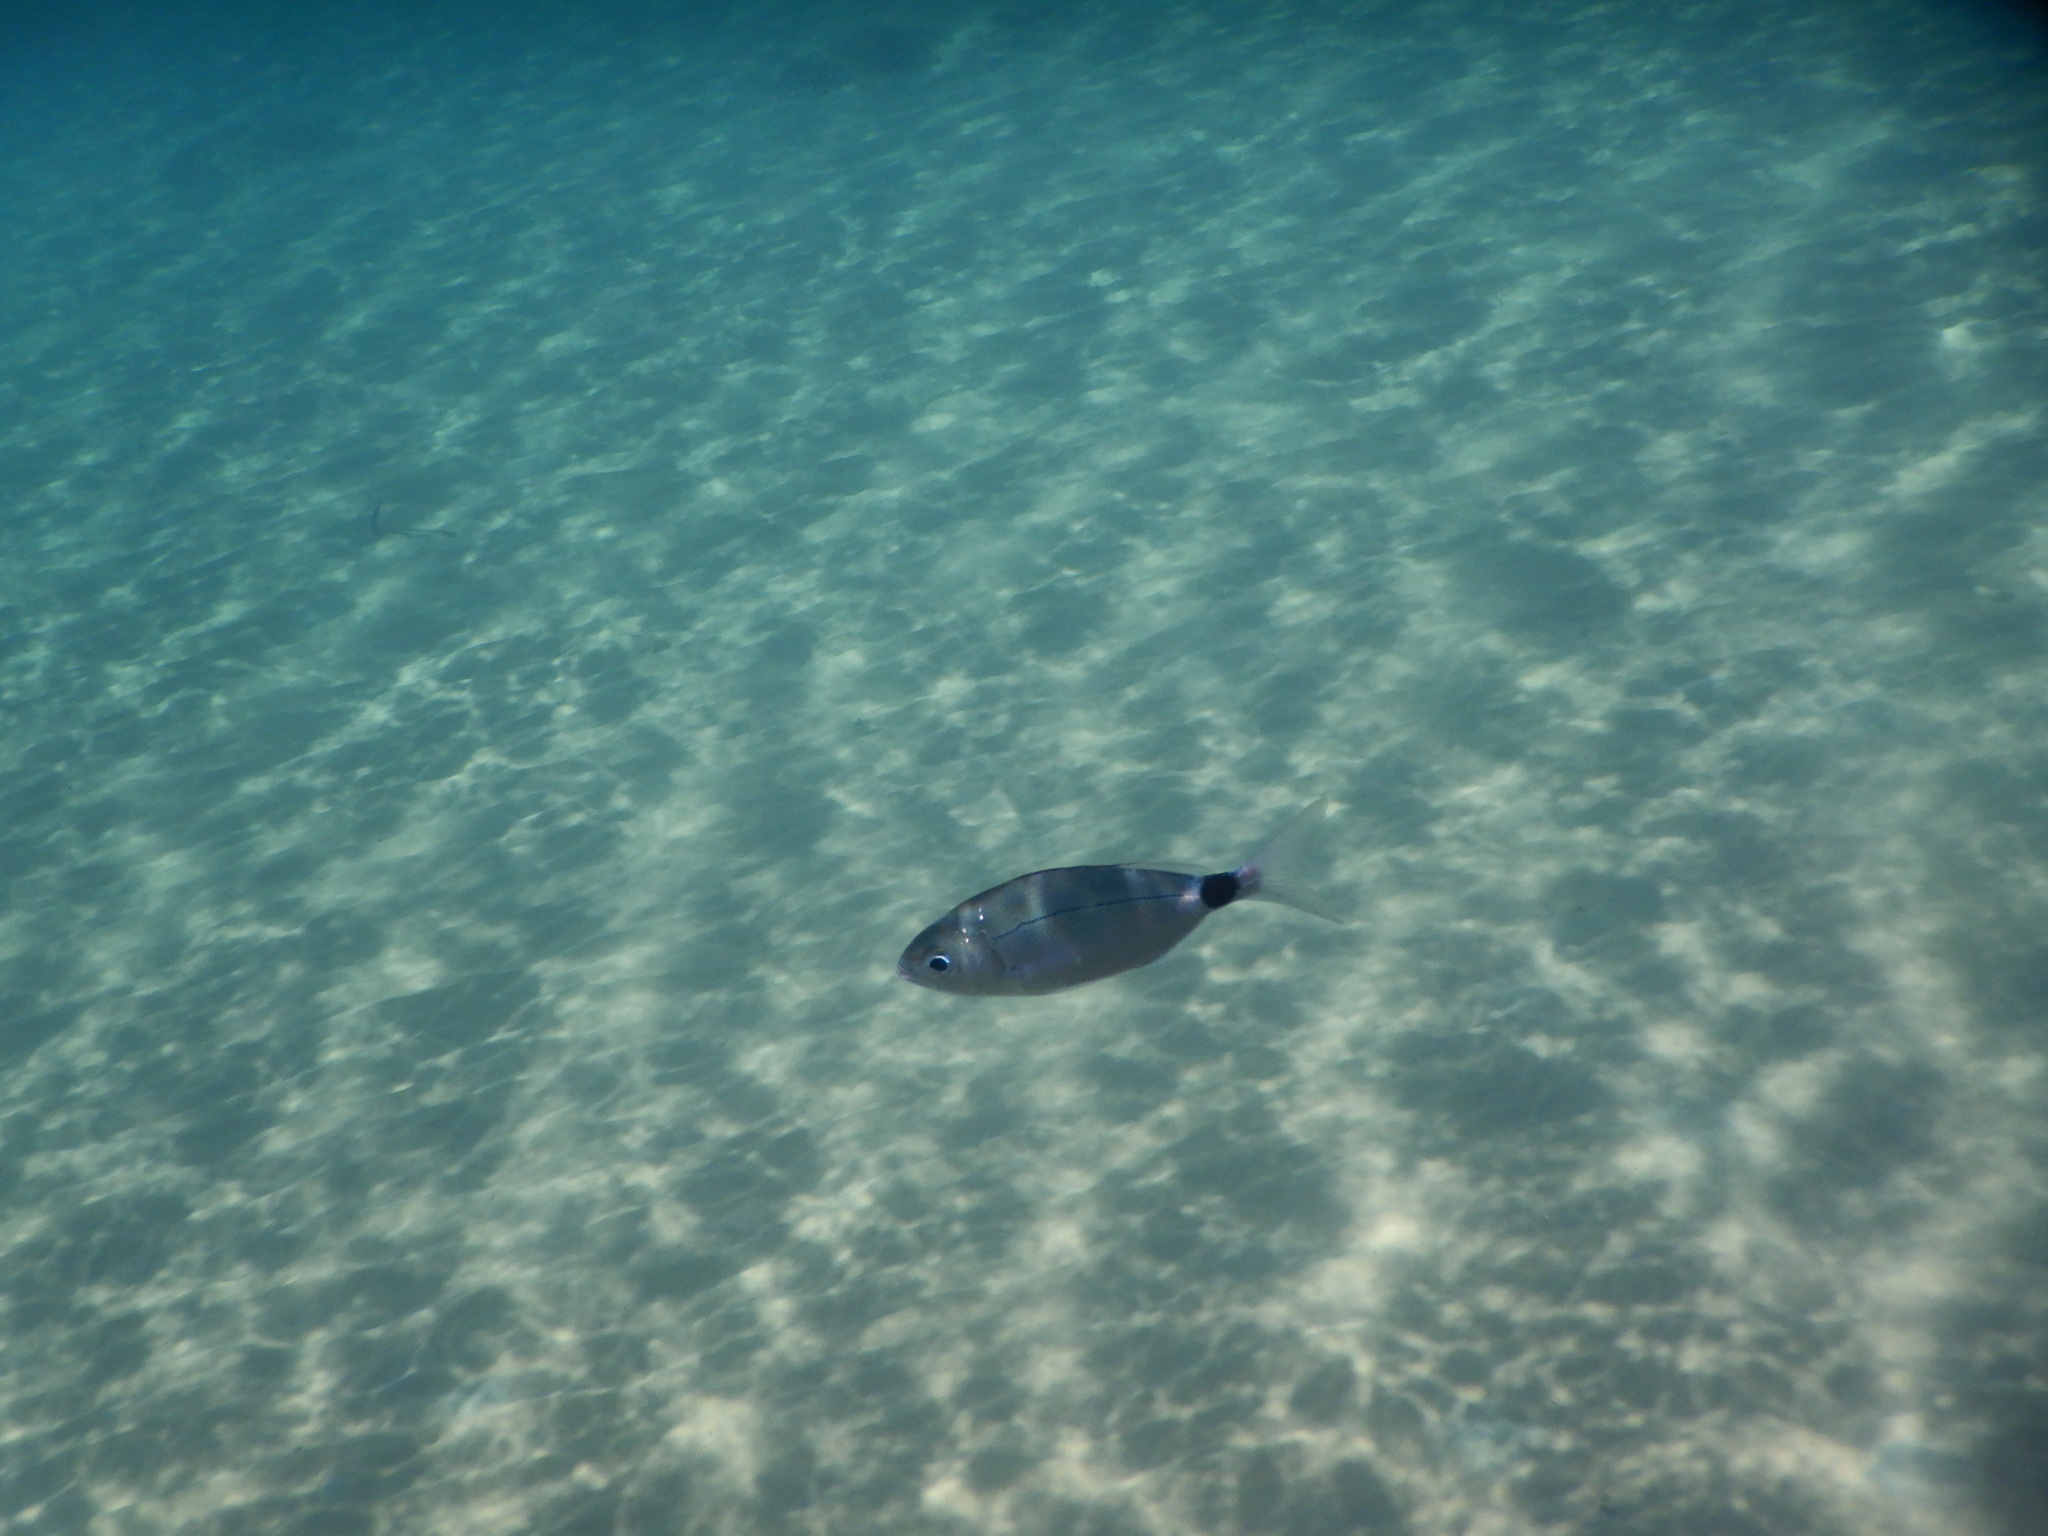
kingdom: Animalia
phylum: Chordata
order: Perciformes
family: Sparidae
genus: Oblada
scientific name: Oblada melanura
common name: Saddled seabream
